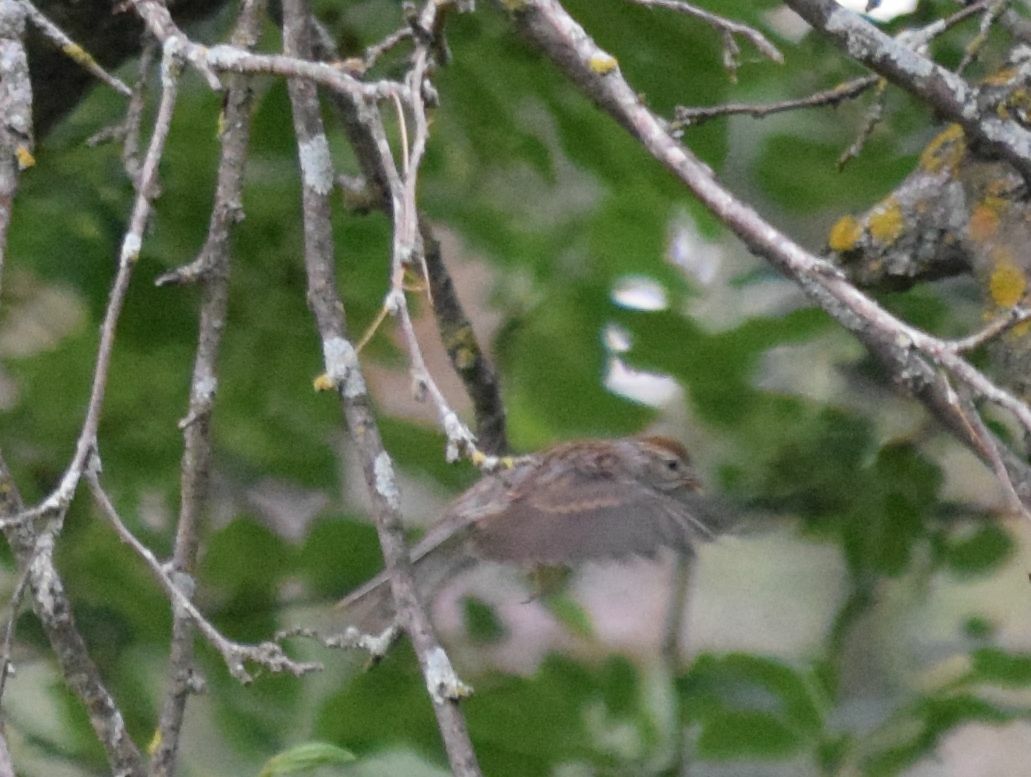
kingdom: Animalia
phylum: Chordata
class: Aves
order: Passeriformes
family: Passerellidae
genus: Spizella
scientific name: Spizella passerina
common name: Chipping sparrow
